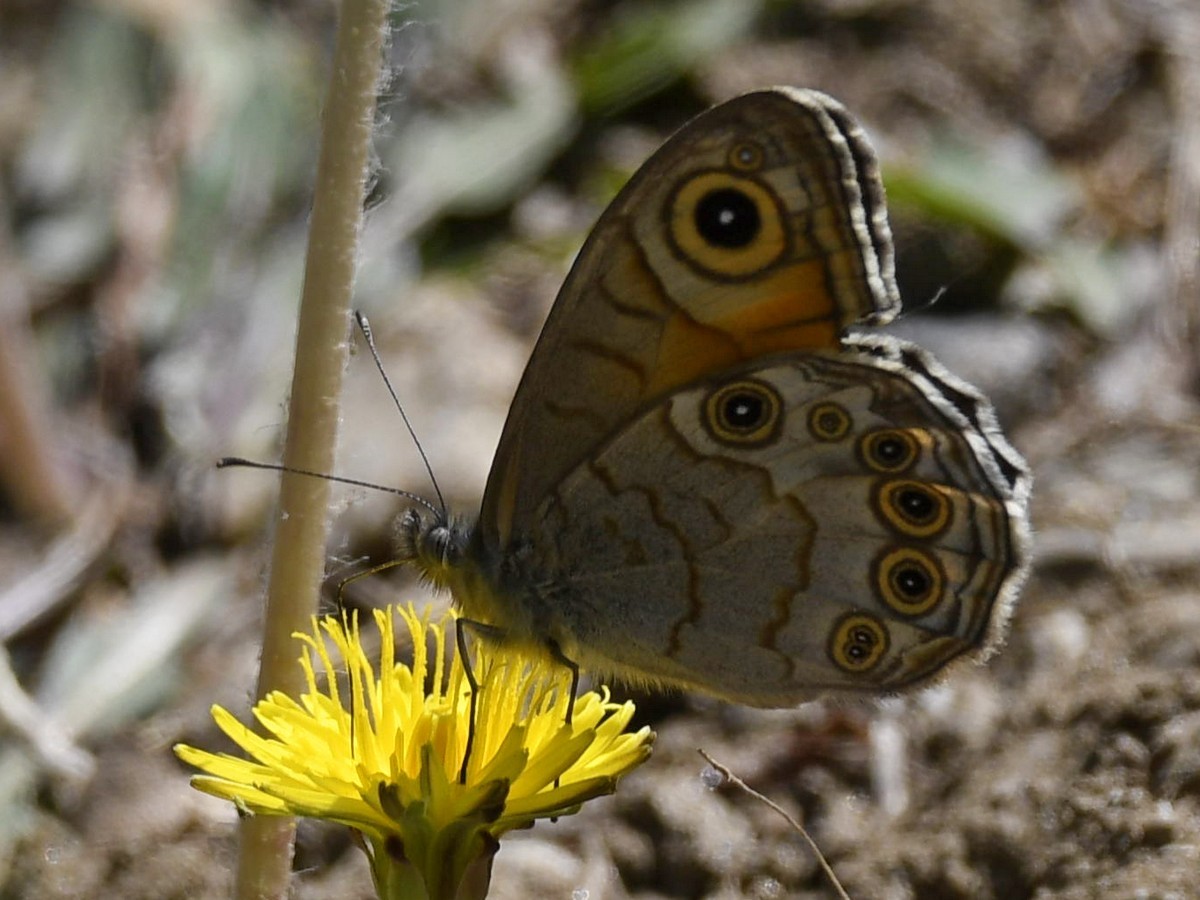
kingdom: Animalia
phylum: Arthropoda
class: Insecta
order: Lepidoptera
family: Nymphalidae
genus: Pararge
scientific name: Pararge Lasiommata schakra
